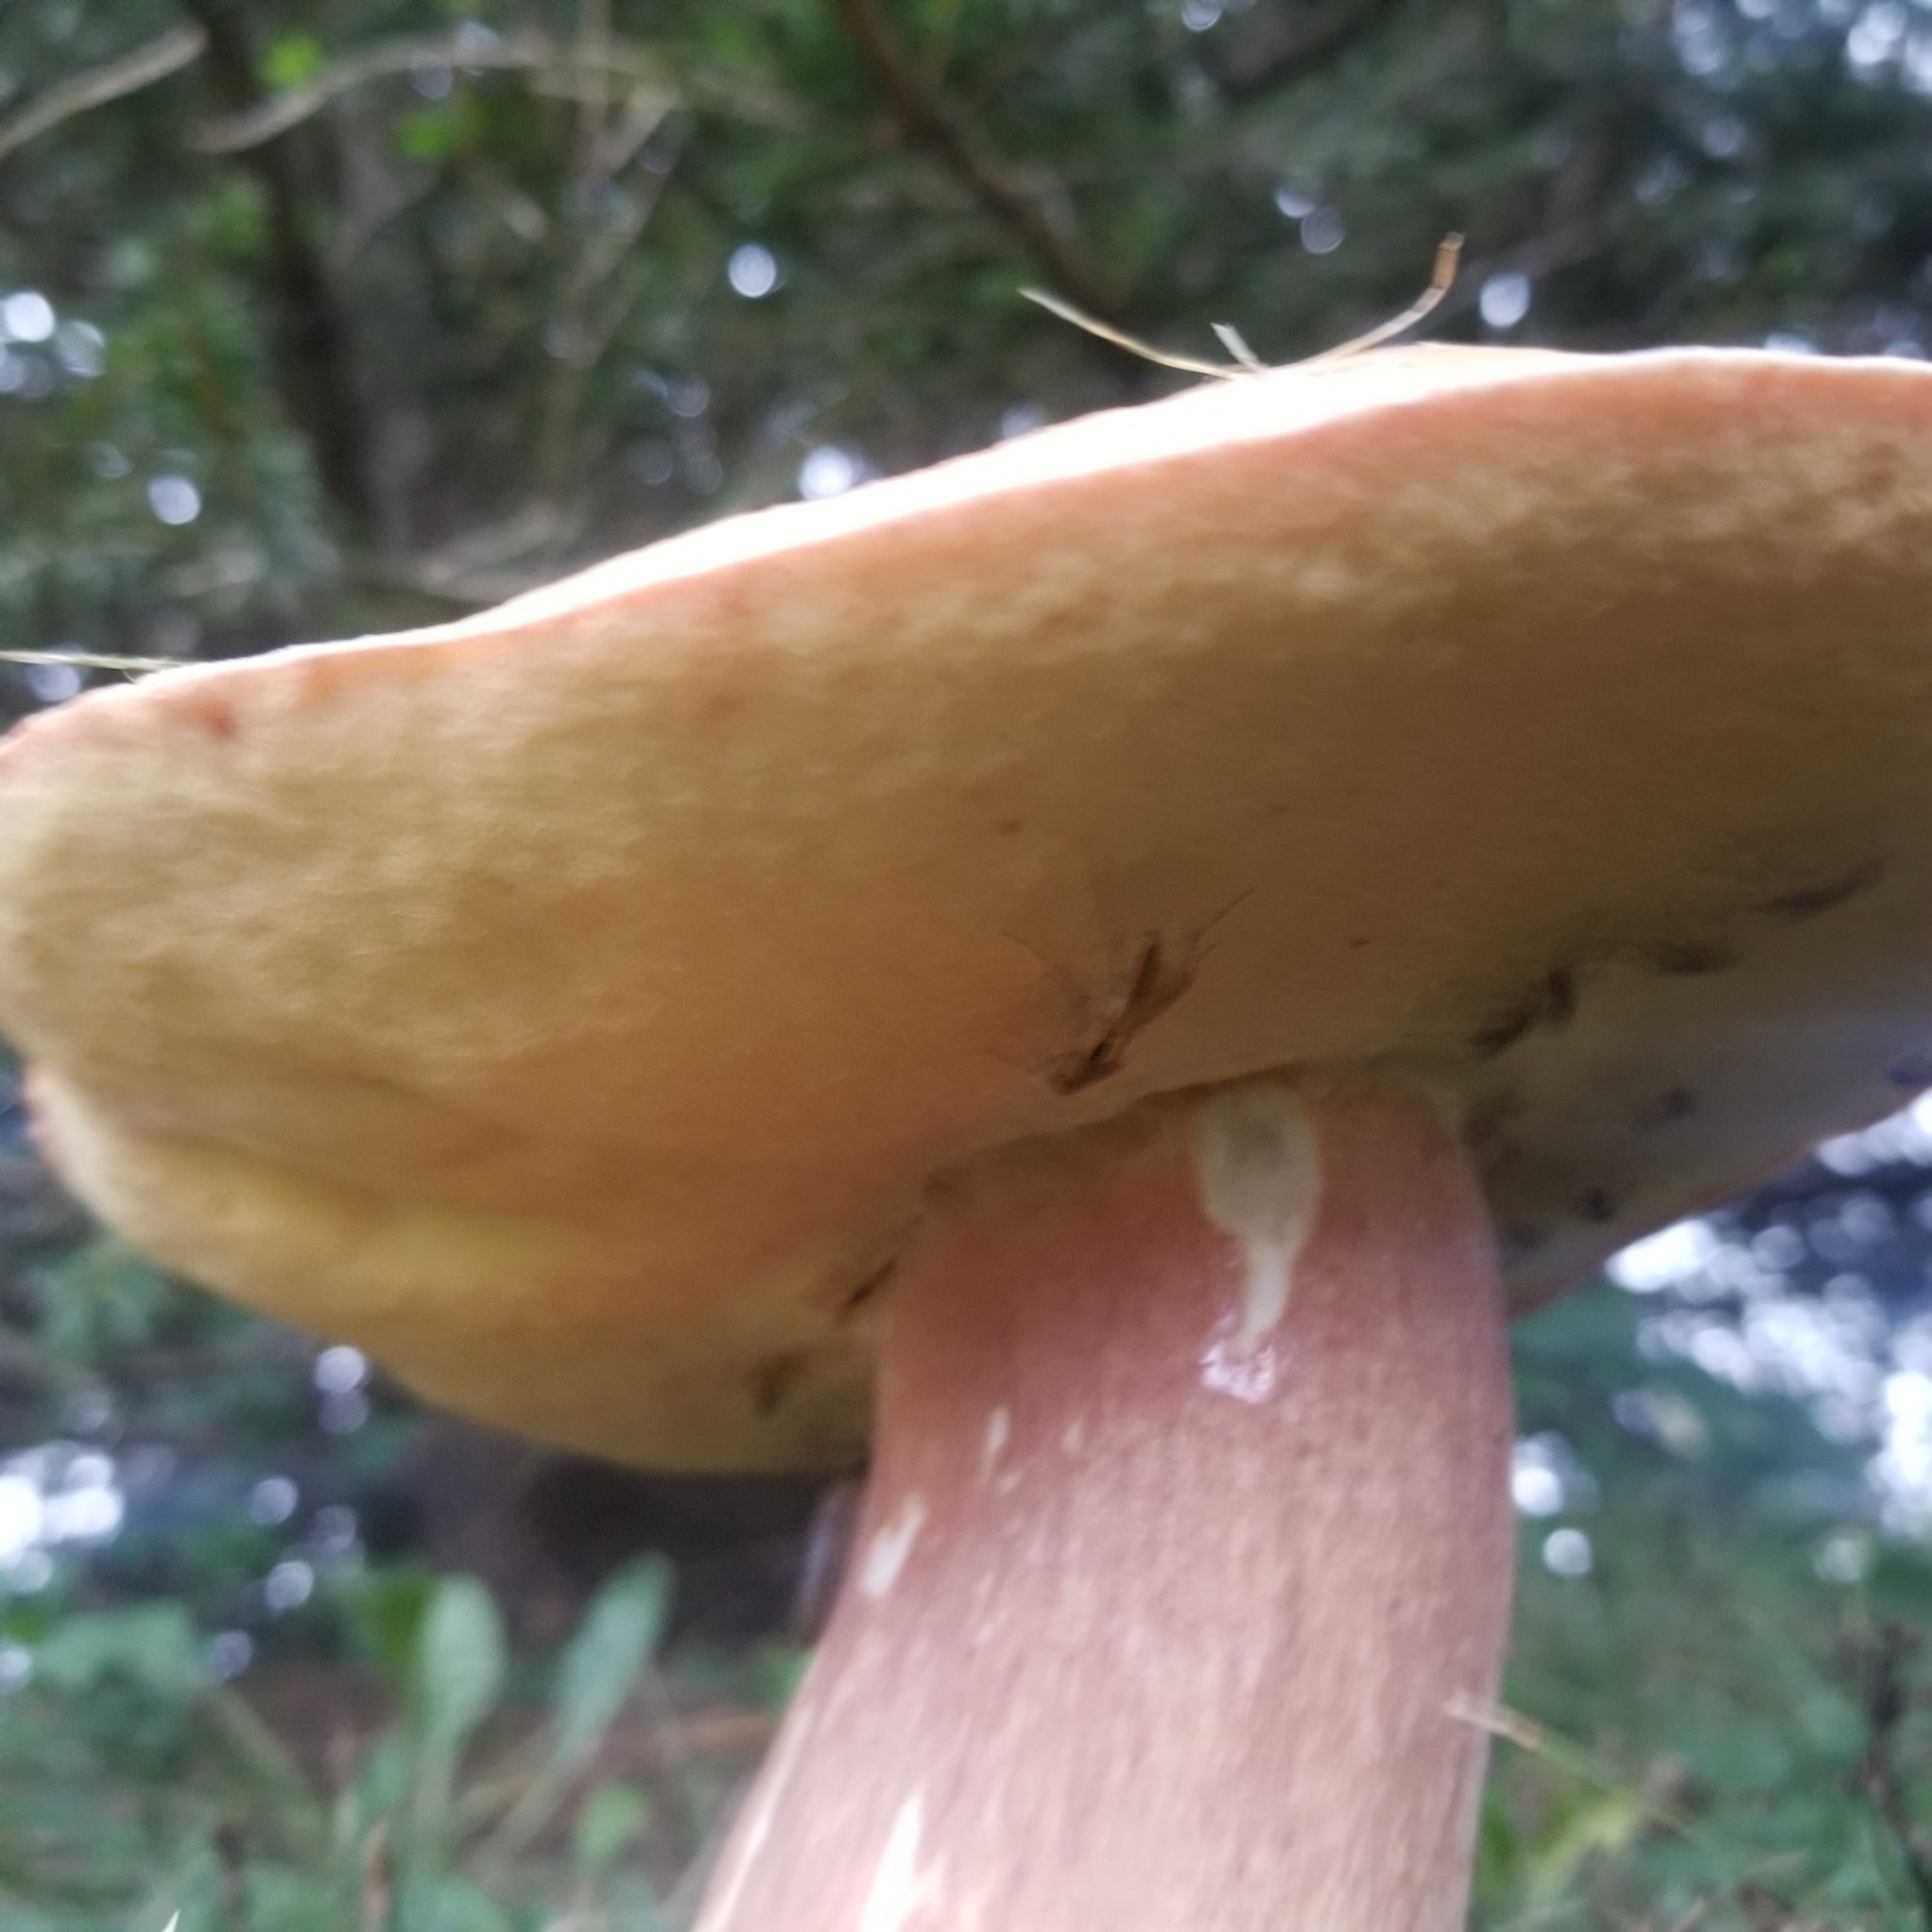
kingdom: Fungi
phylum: Basidiomycota
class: Agaricomycetes
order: Boletales
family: Boletaceae
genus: Xanthoconium
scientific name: Xanthoconium separans
